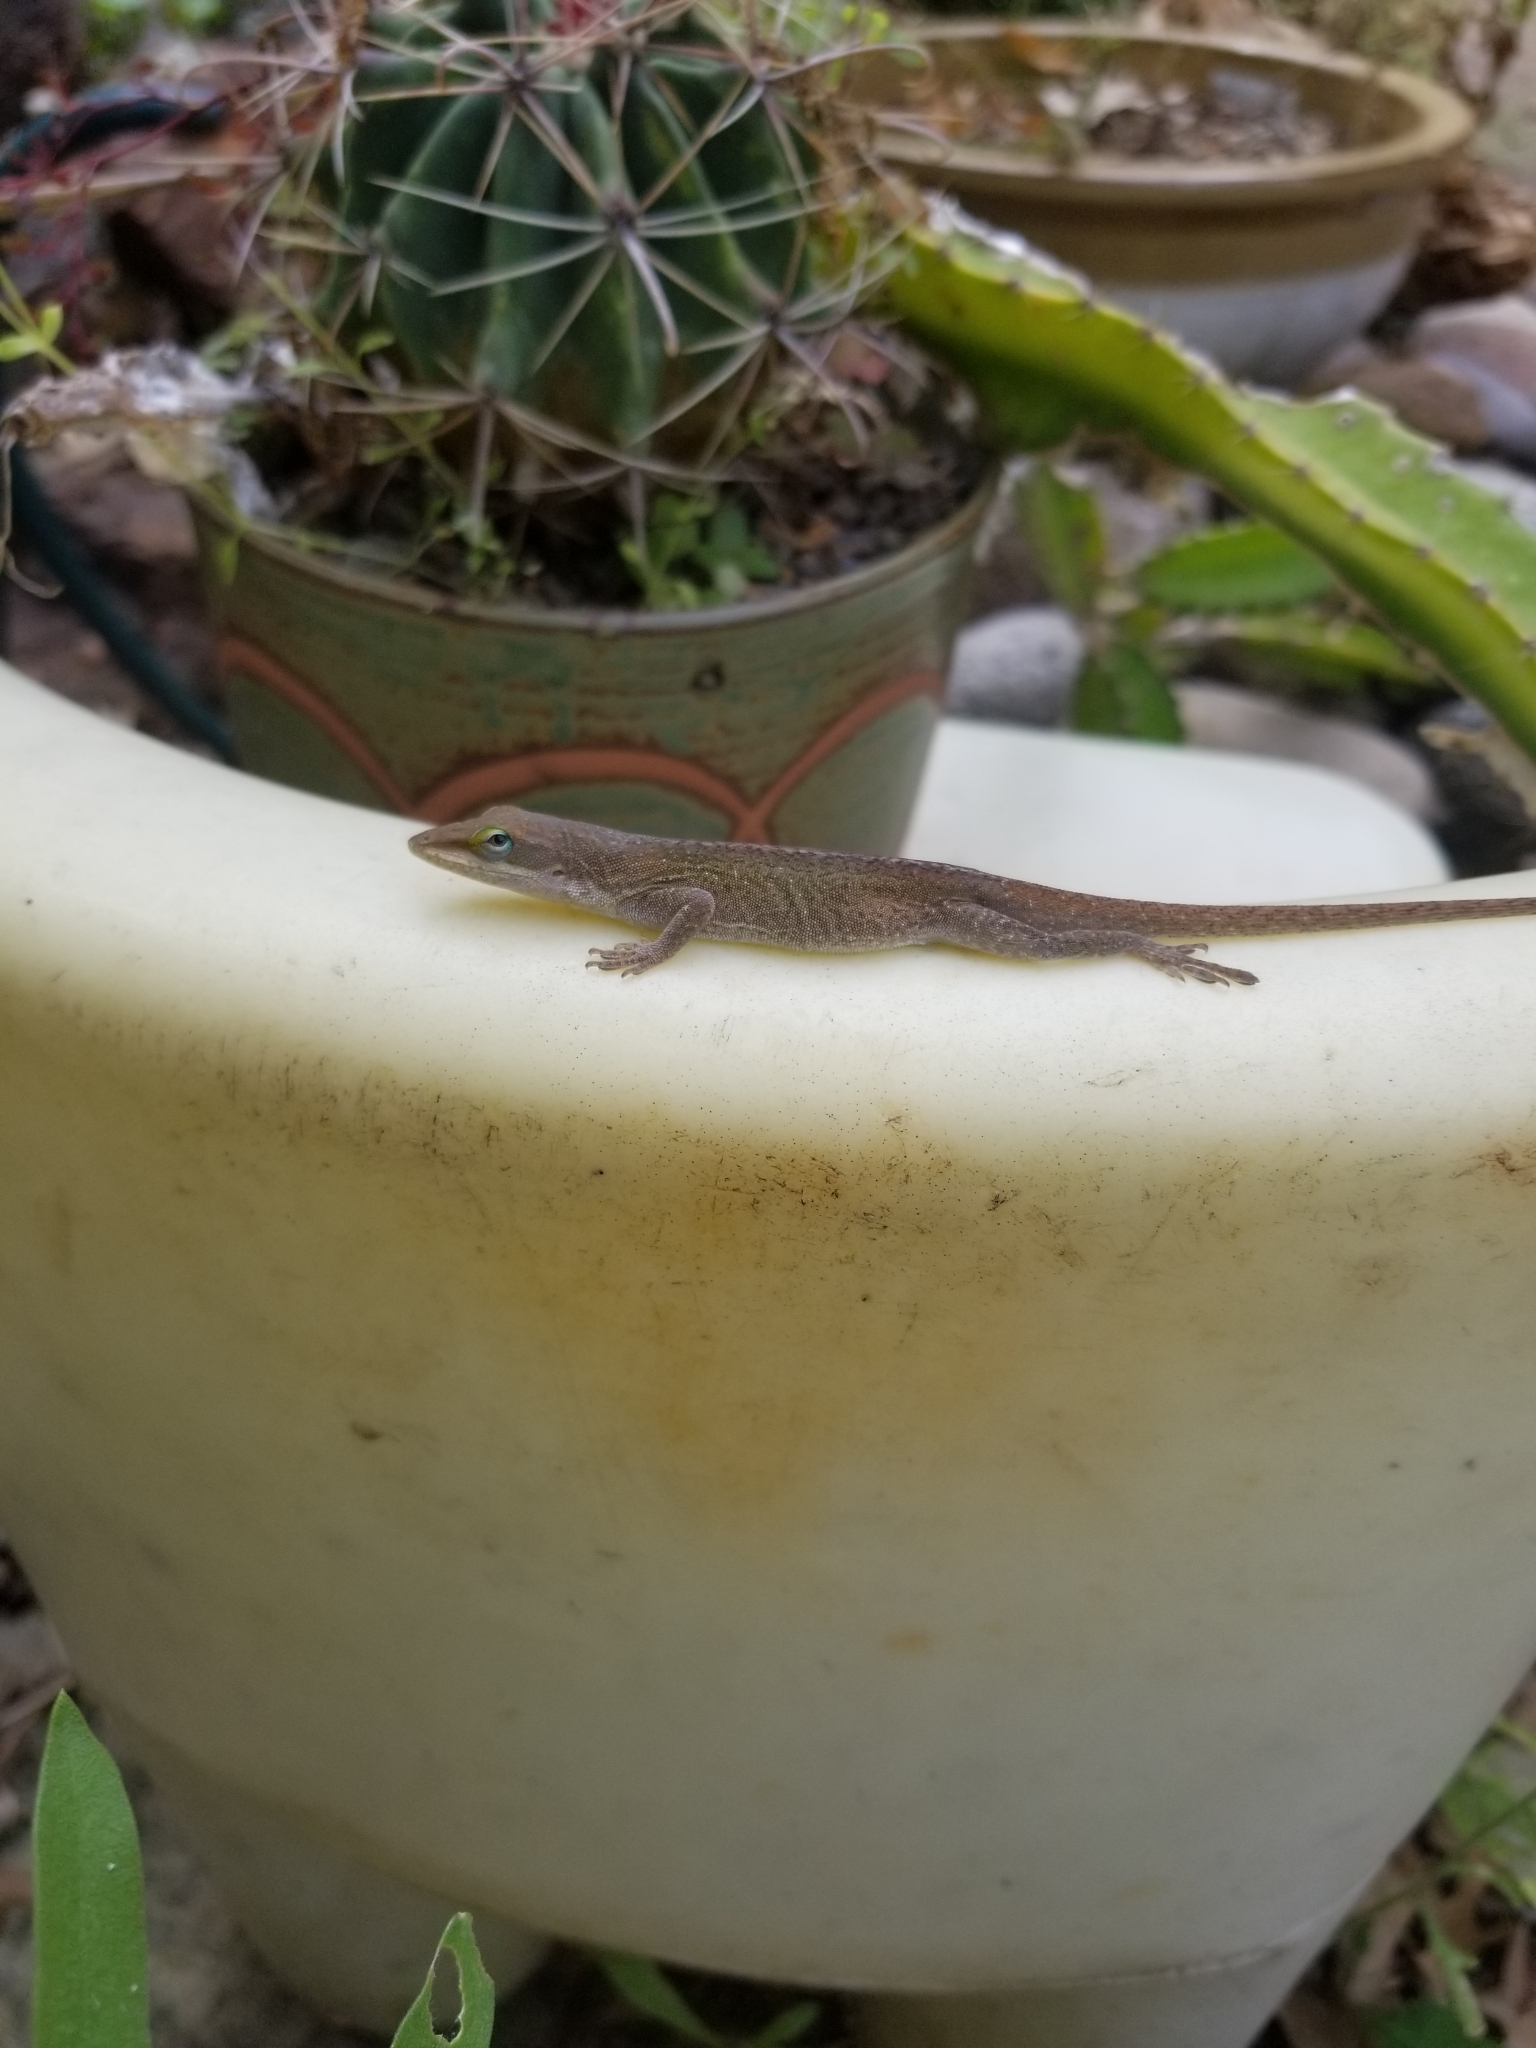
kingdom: Animalia
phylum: Chordata
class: Squamata
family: Dactyloidae
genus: Anolis
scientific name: Anolis carolinensis
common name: Green anole
